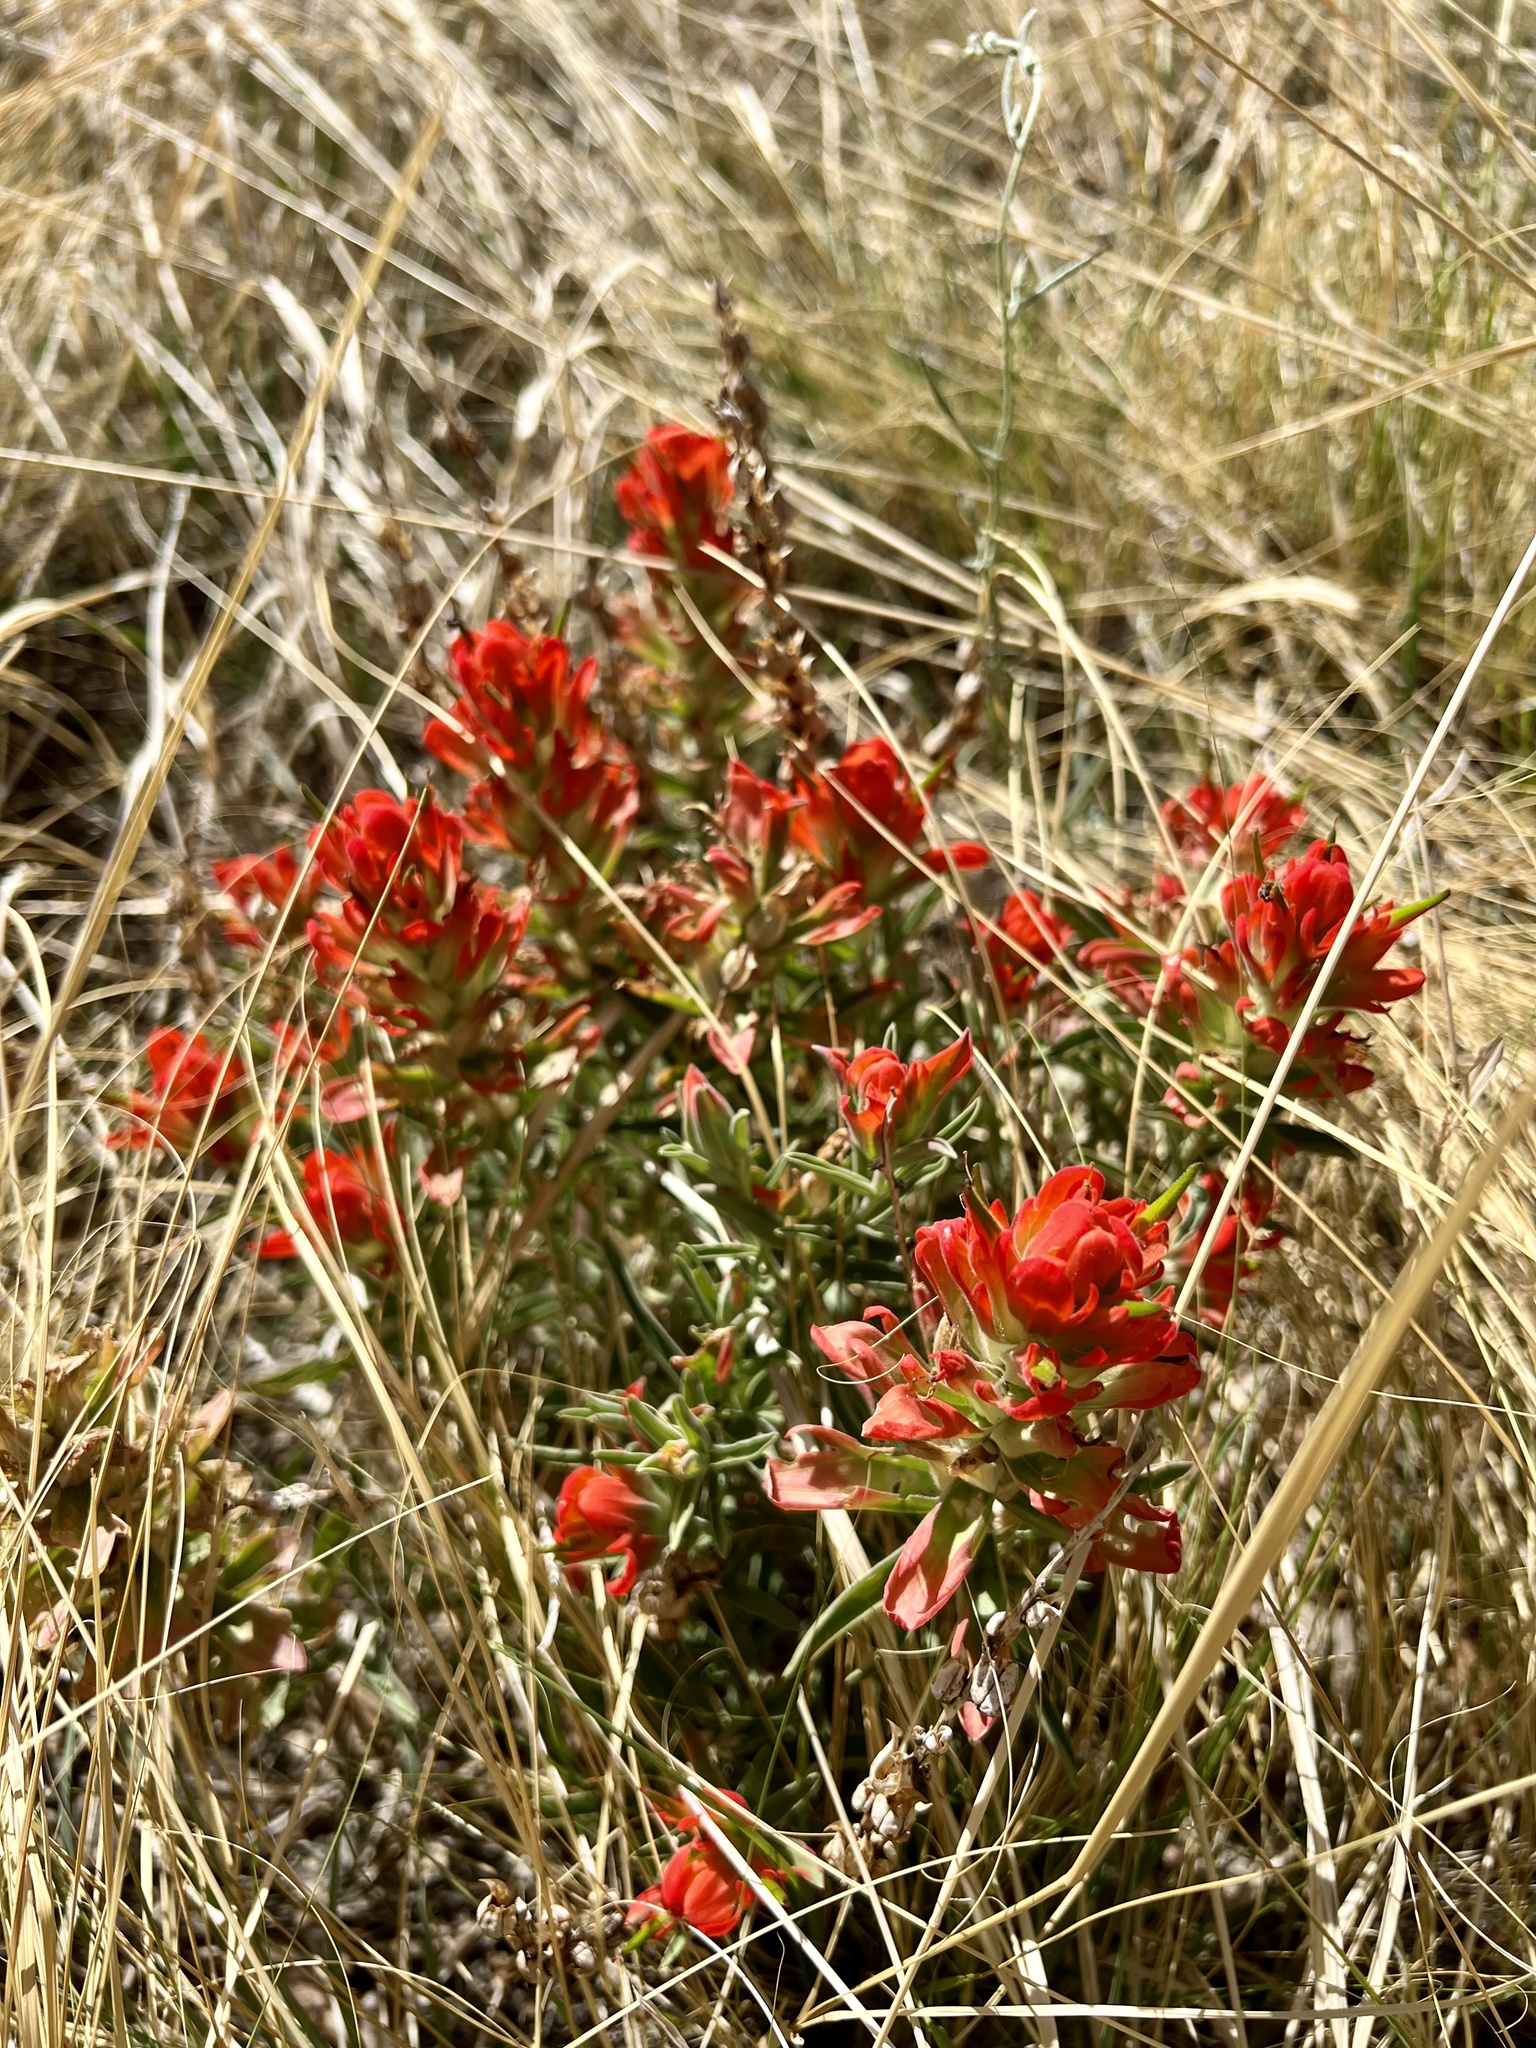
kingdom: Plantae
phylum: Tracheophyta
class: Magnoliopsida
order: Lamiales
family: Orobanchaceae
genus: Castilleja
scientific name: Castilleja integra
